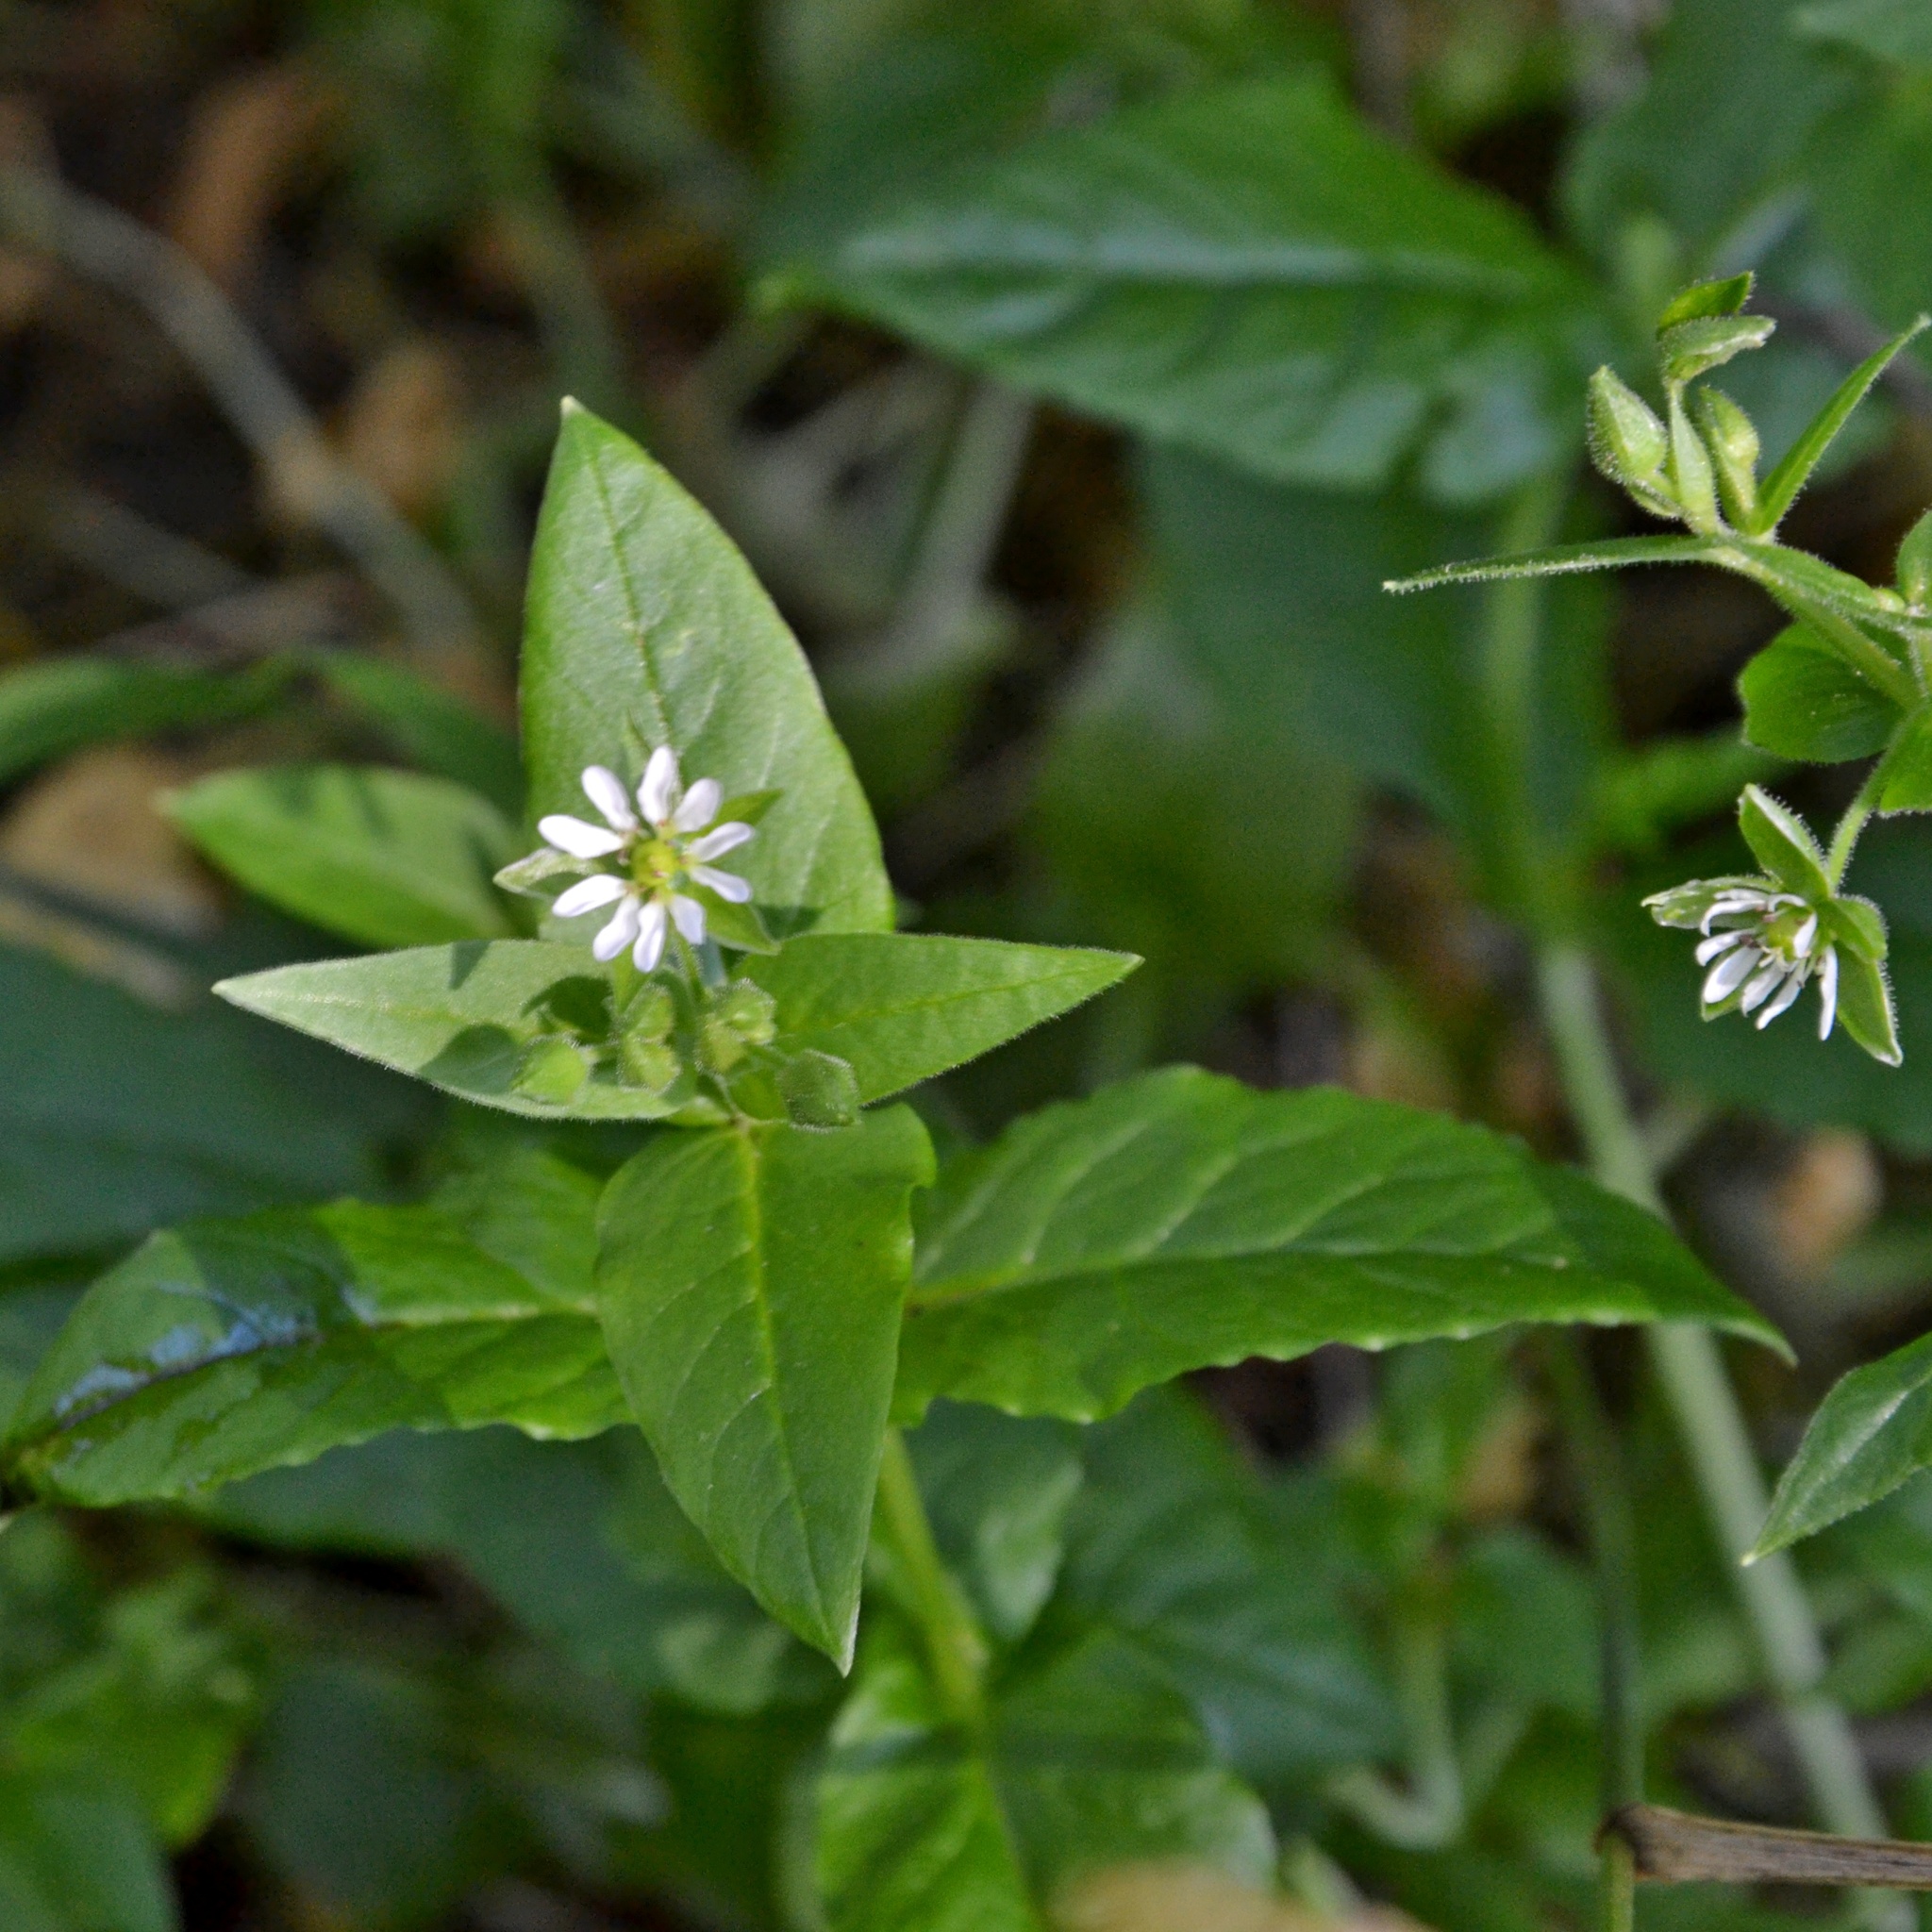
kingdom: Plantae
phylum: Tracheophyta
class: Magnoliopsida
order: Caryophyllales
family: Caryophyllaceae
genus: Stellaria
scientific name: Stellaria aquatica
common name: Water chickweed
